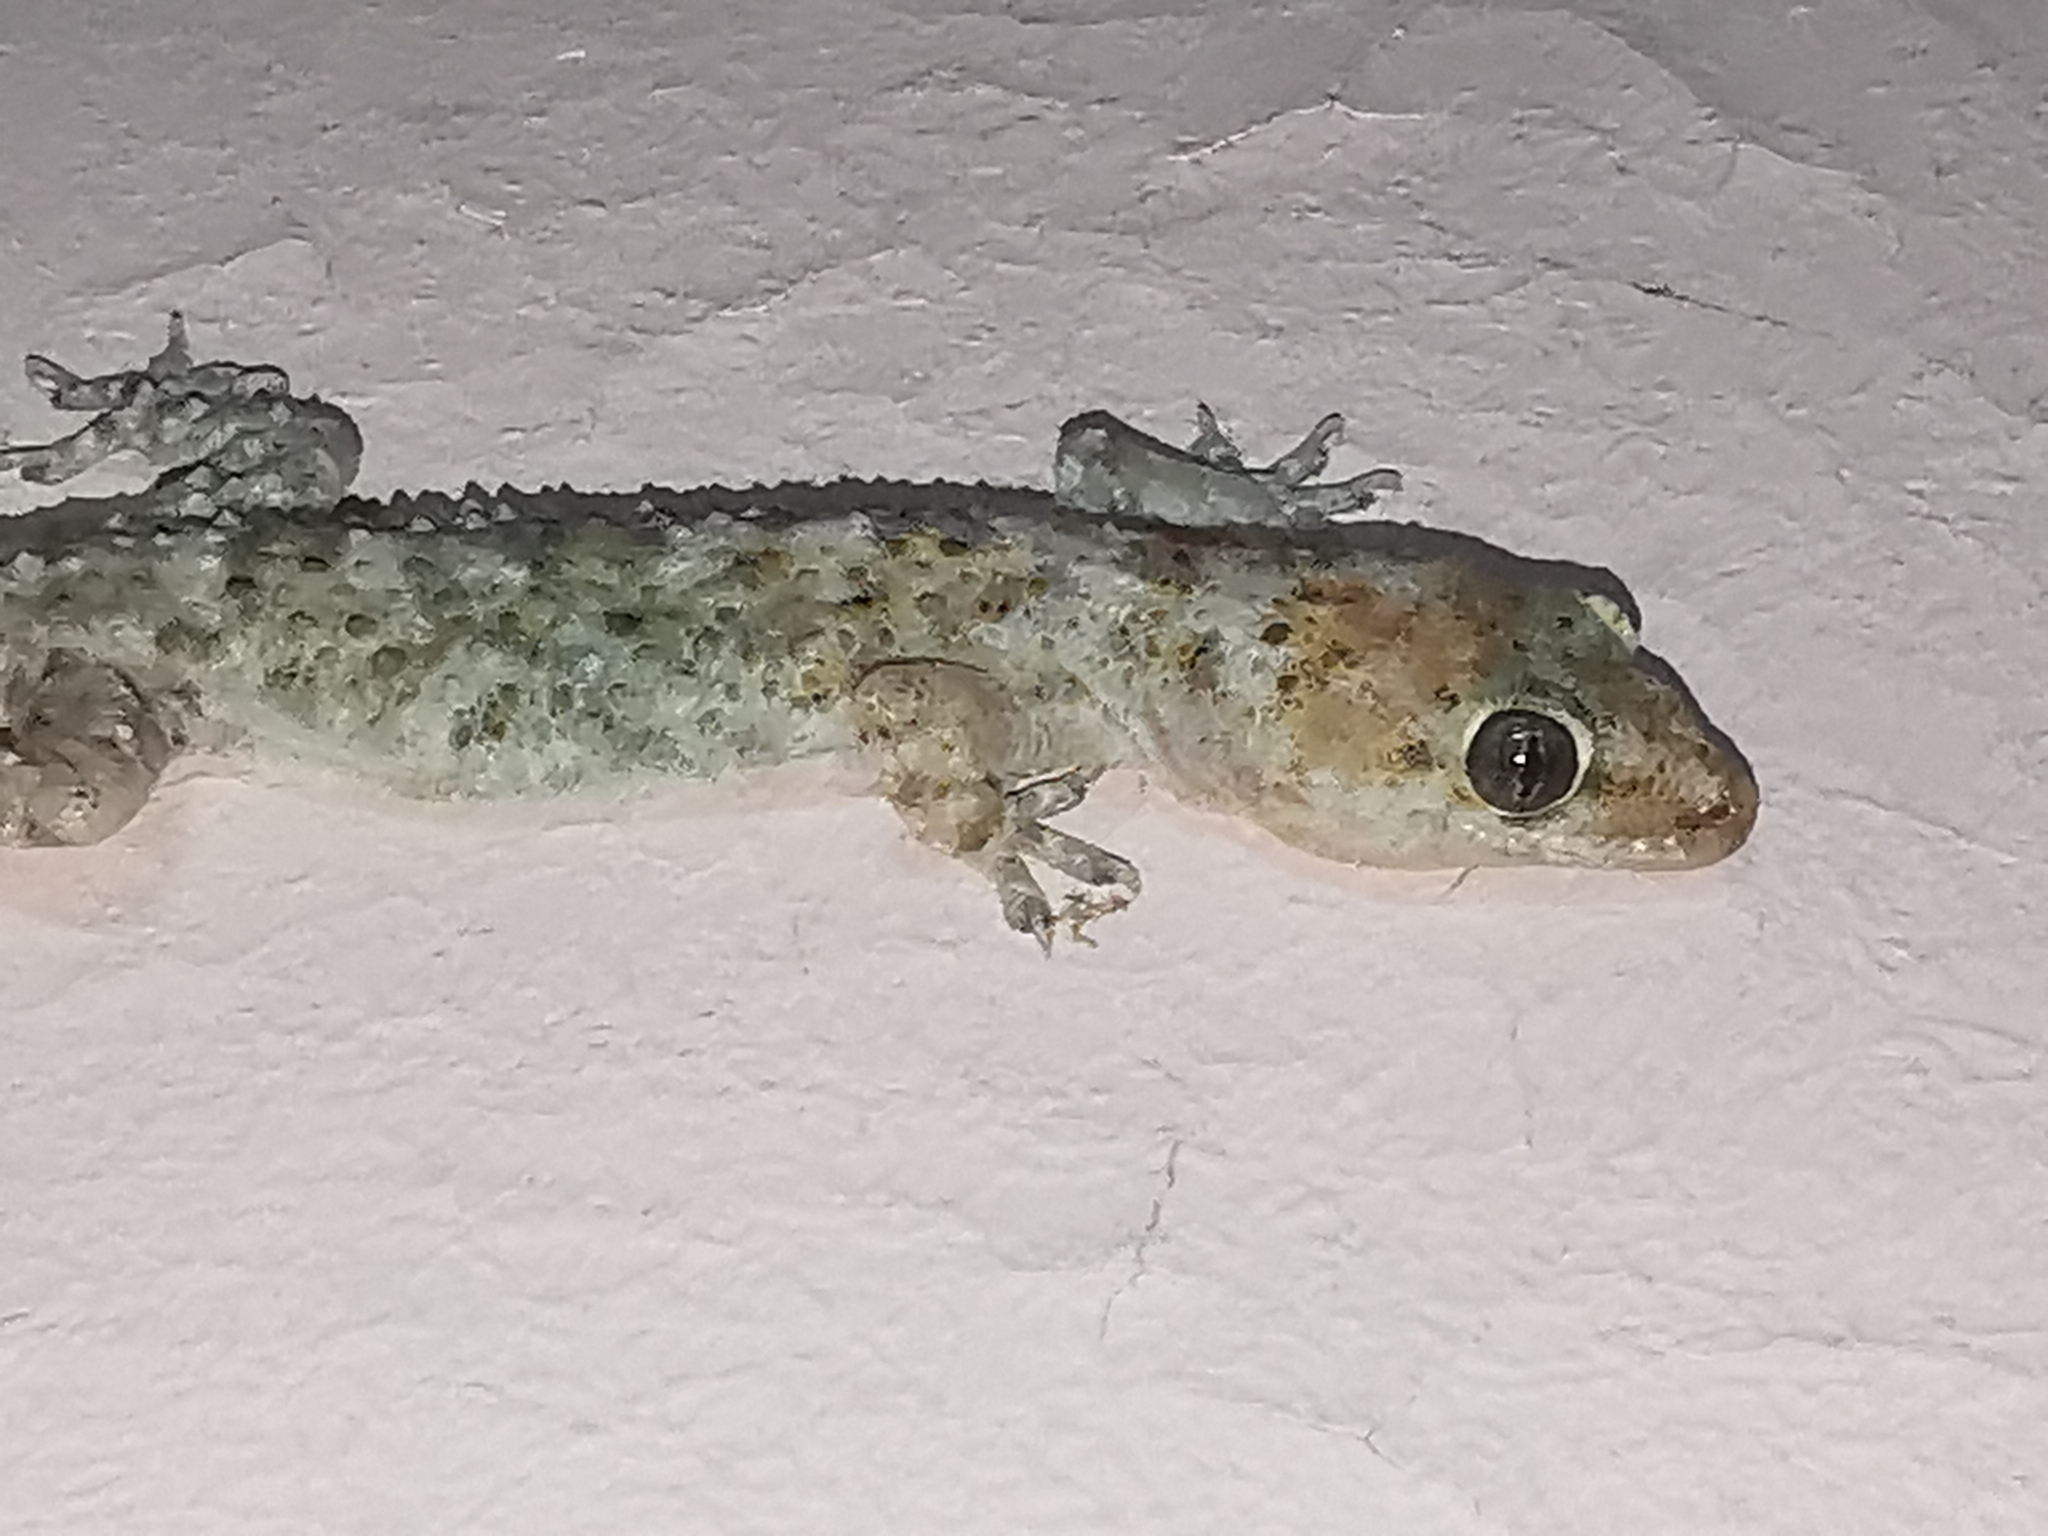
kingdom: Animalia
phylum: Chordata
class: Squamata
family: Gekkonidae
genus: Hemidactylus
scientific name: Hemidactylus turcicus
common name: Turkish gecko
